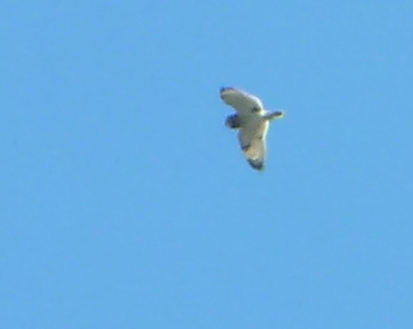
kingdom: Animalia
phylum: Chordata
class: Aves
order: Strigiformes
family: Strigidae
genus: Asio
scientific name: Asio flammeus
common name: Short-eared owl
